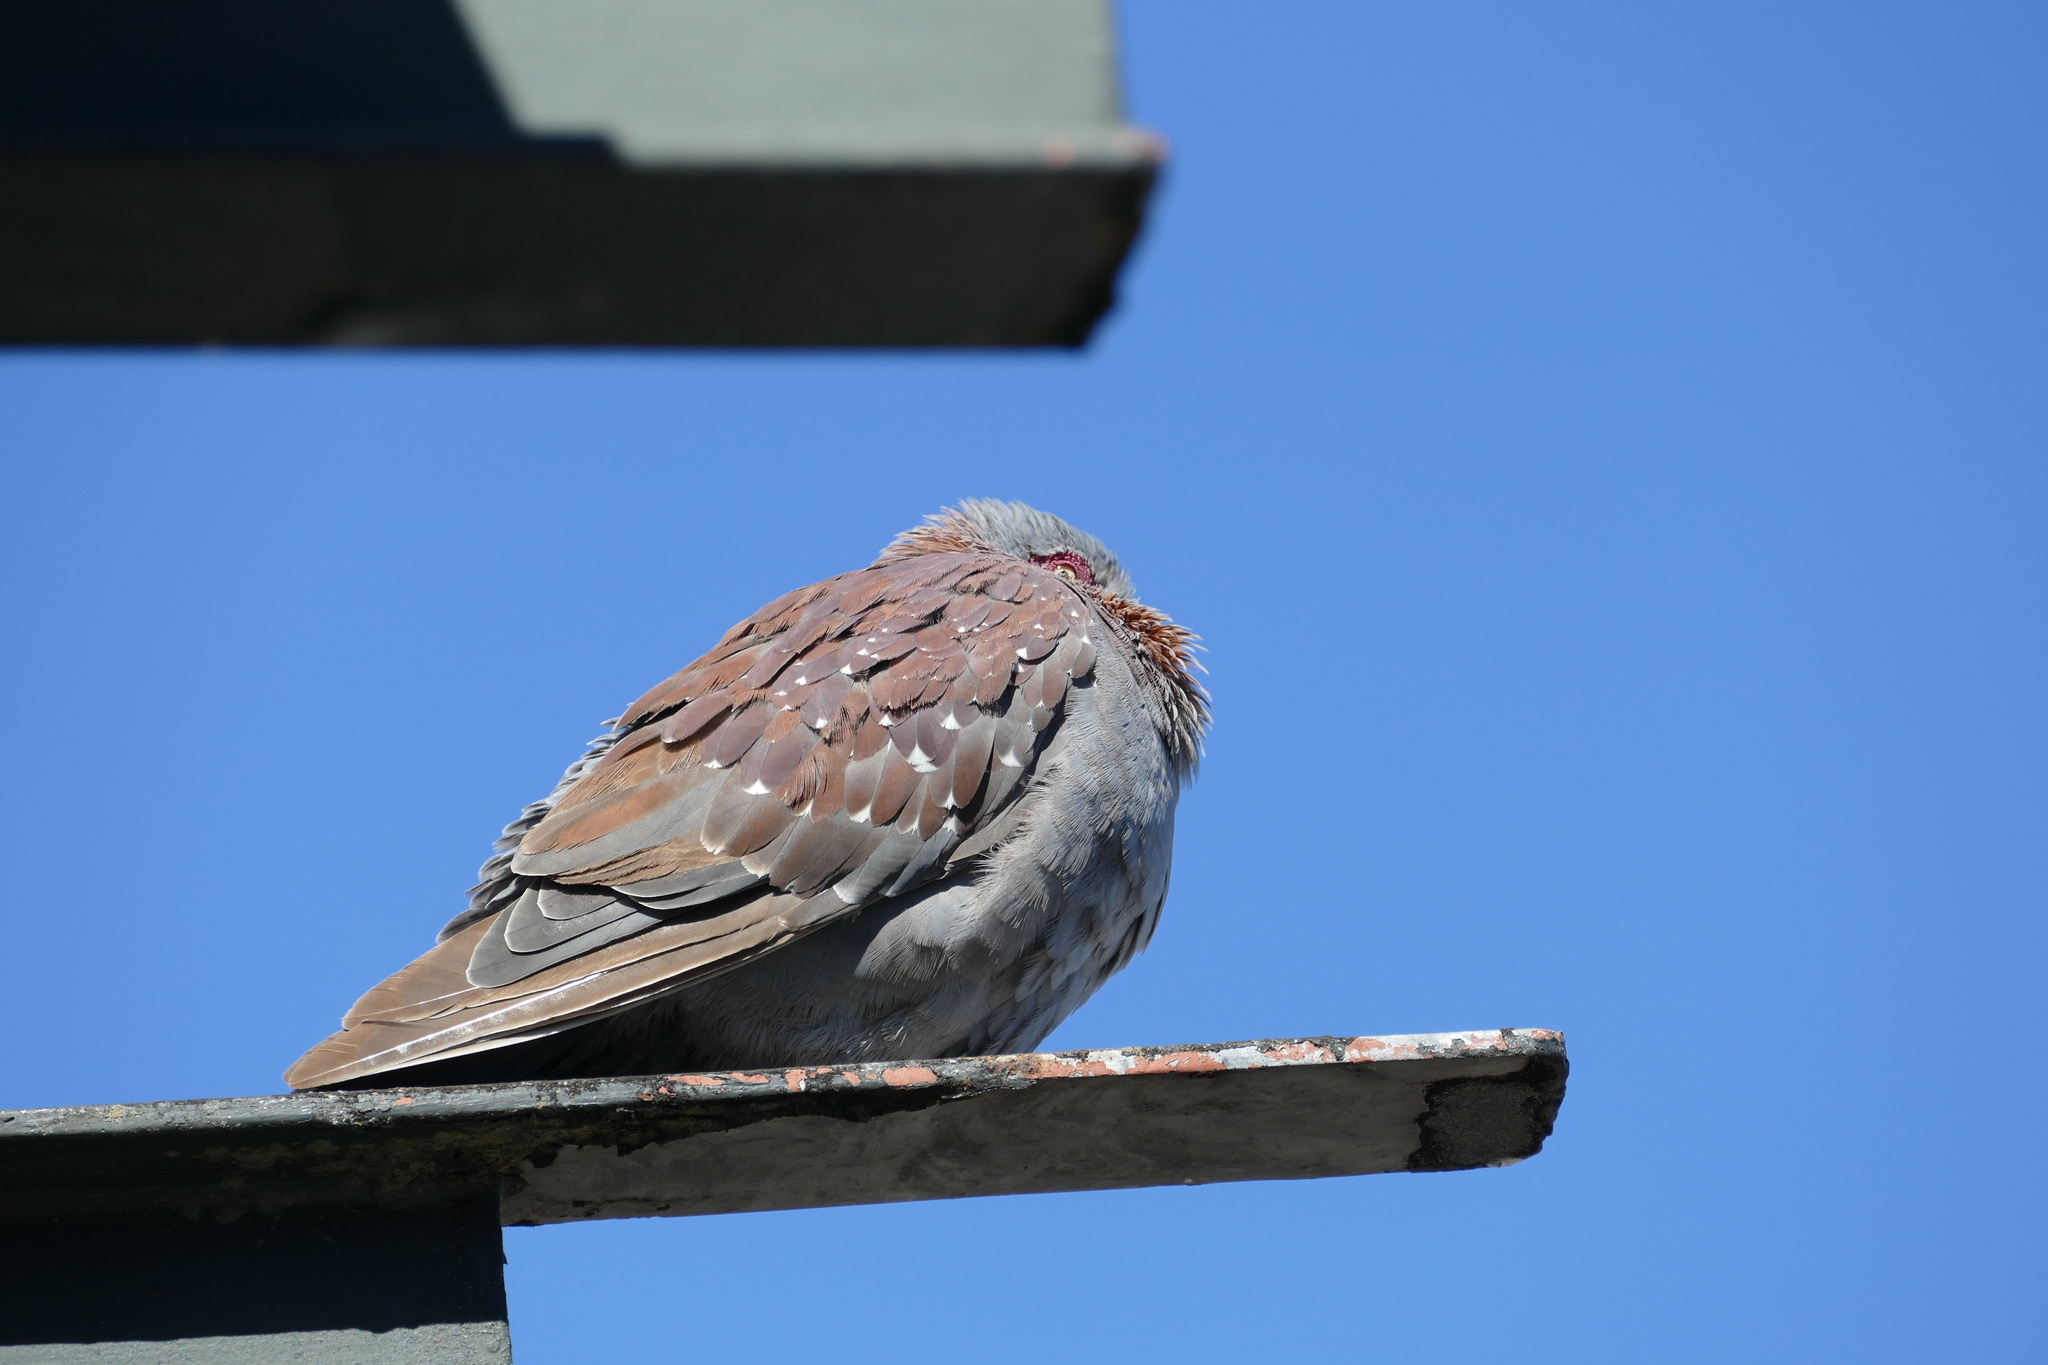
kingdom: Animalia
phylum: Chordata
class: Aves
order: Columbiformes
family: Columbidae
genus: Columba
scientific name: Columba guinea
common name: Speckled pigeon
